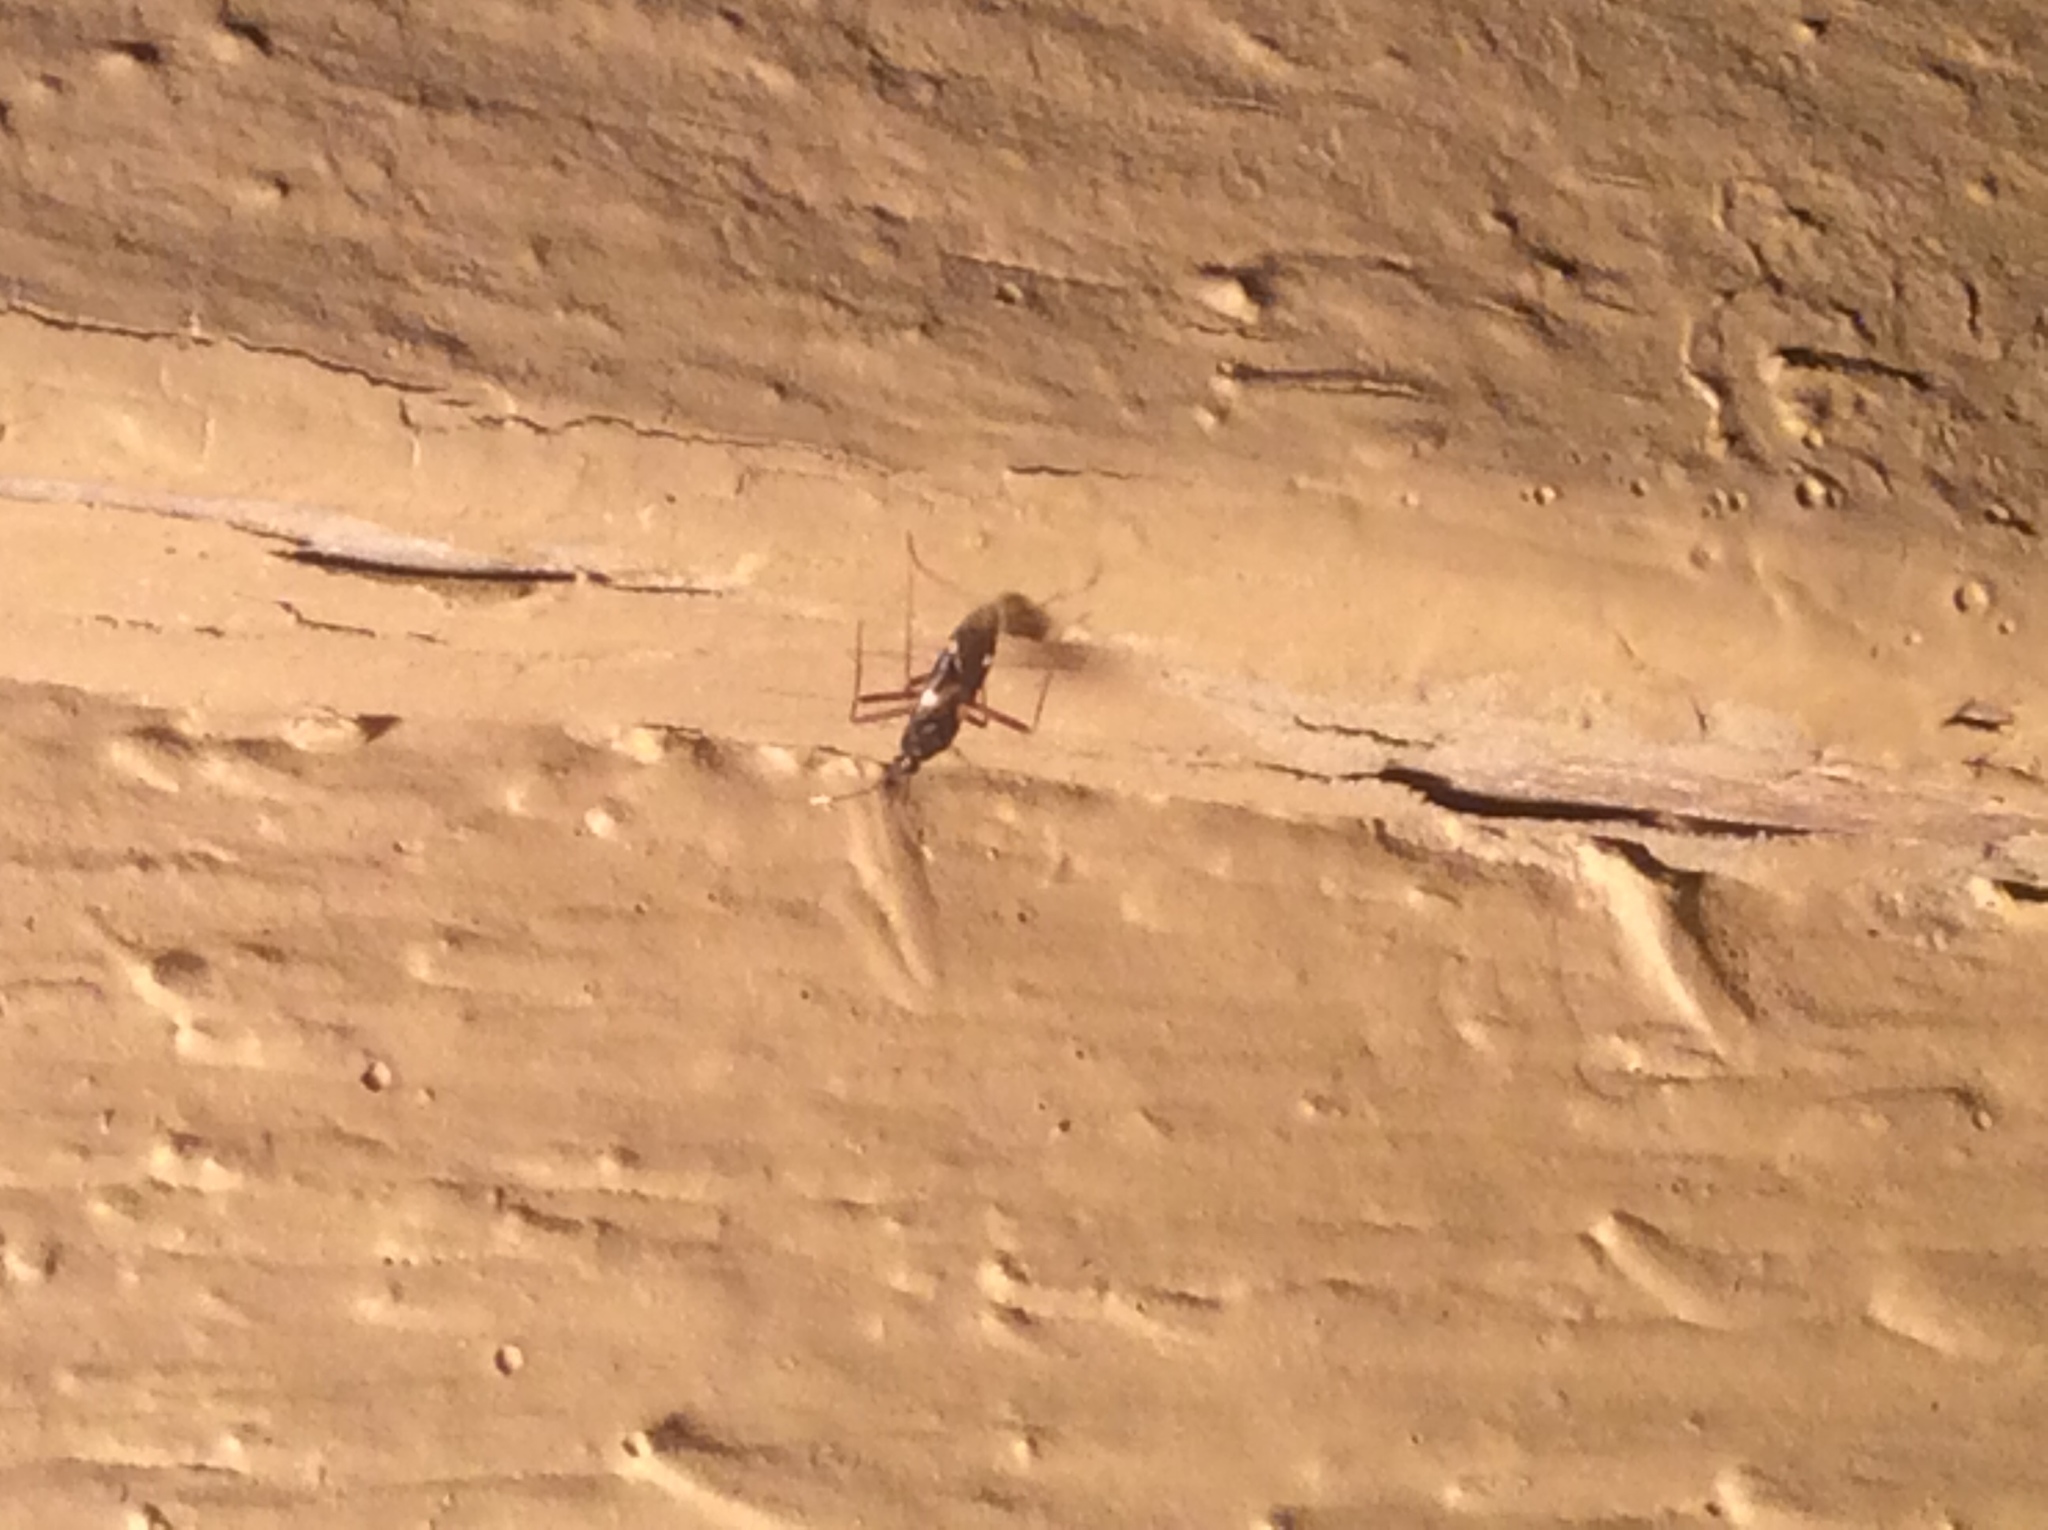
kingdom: Animalia
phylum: Arthropoda
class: Insecta
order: Hemiptera
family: Miridae
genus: Fulvius
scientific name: Fulvius imbecilis
